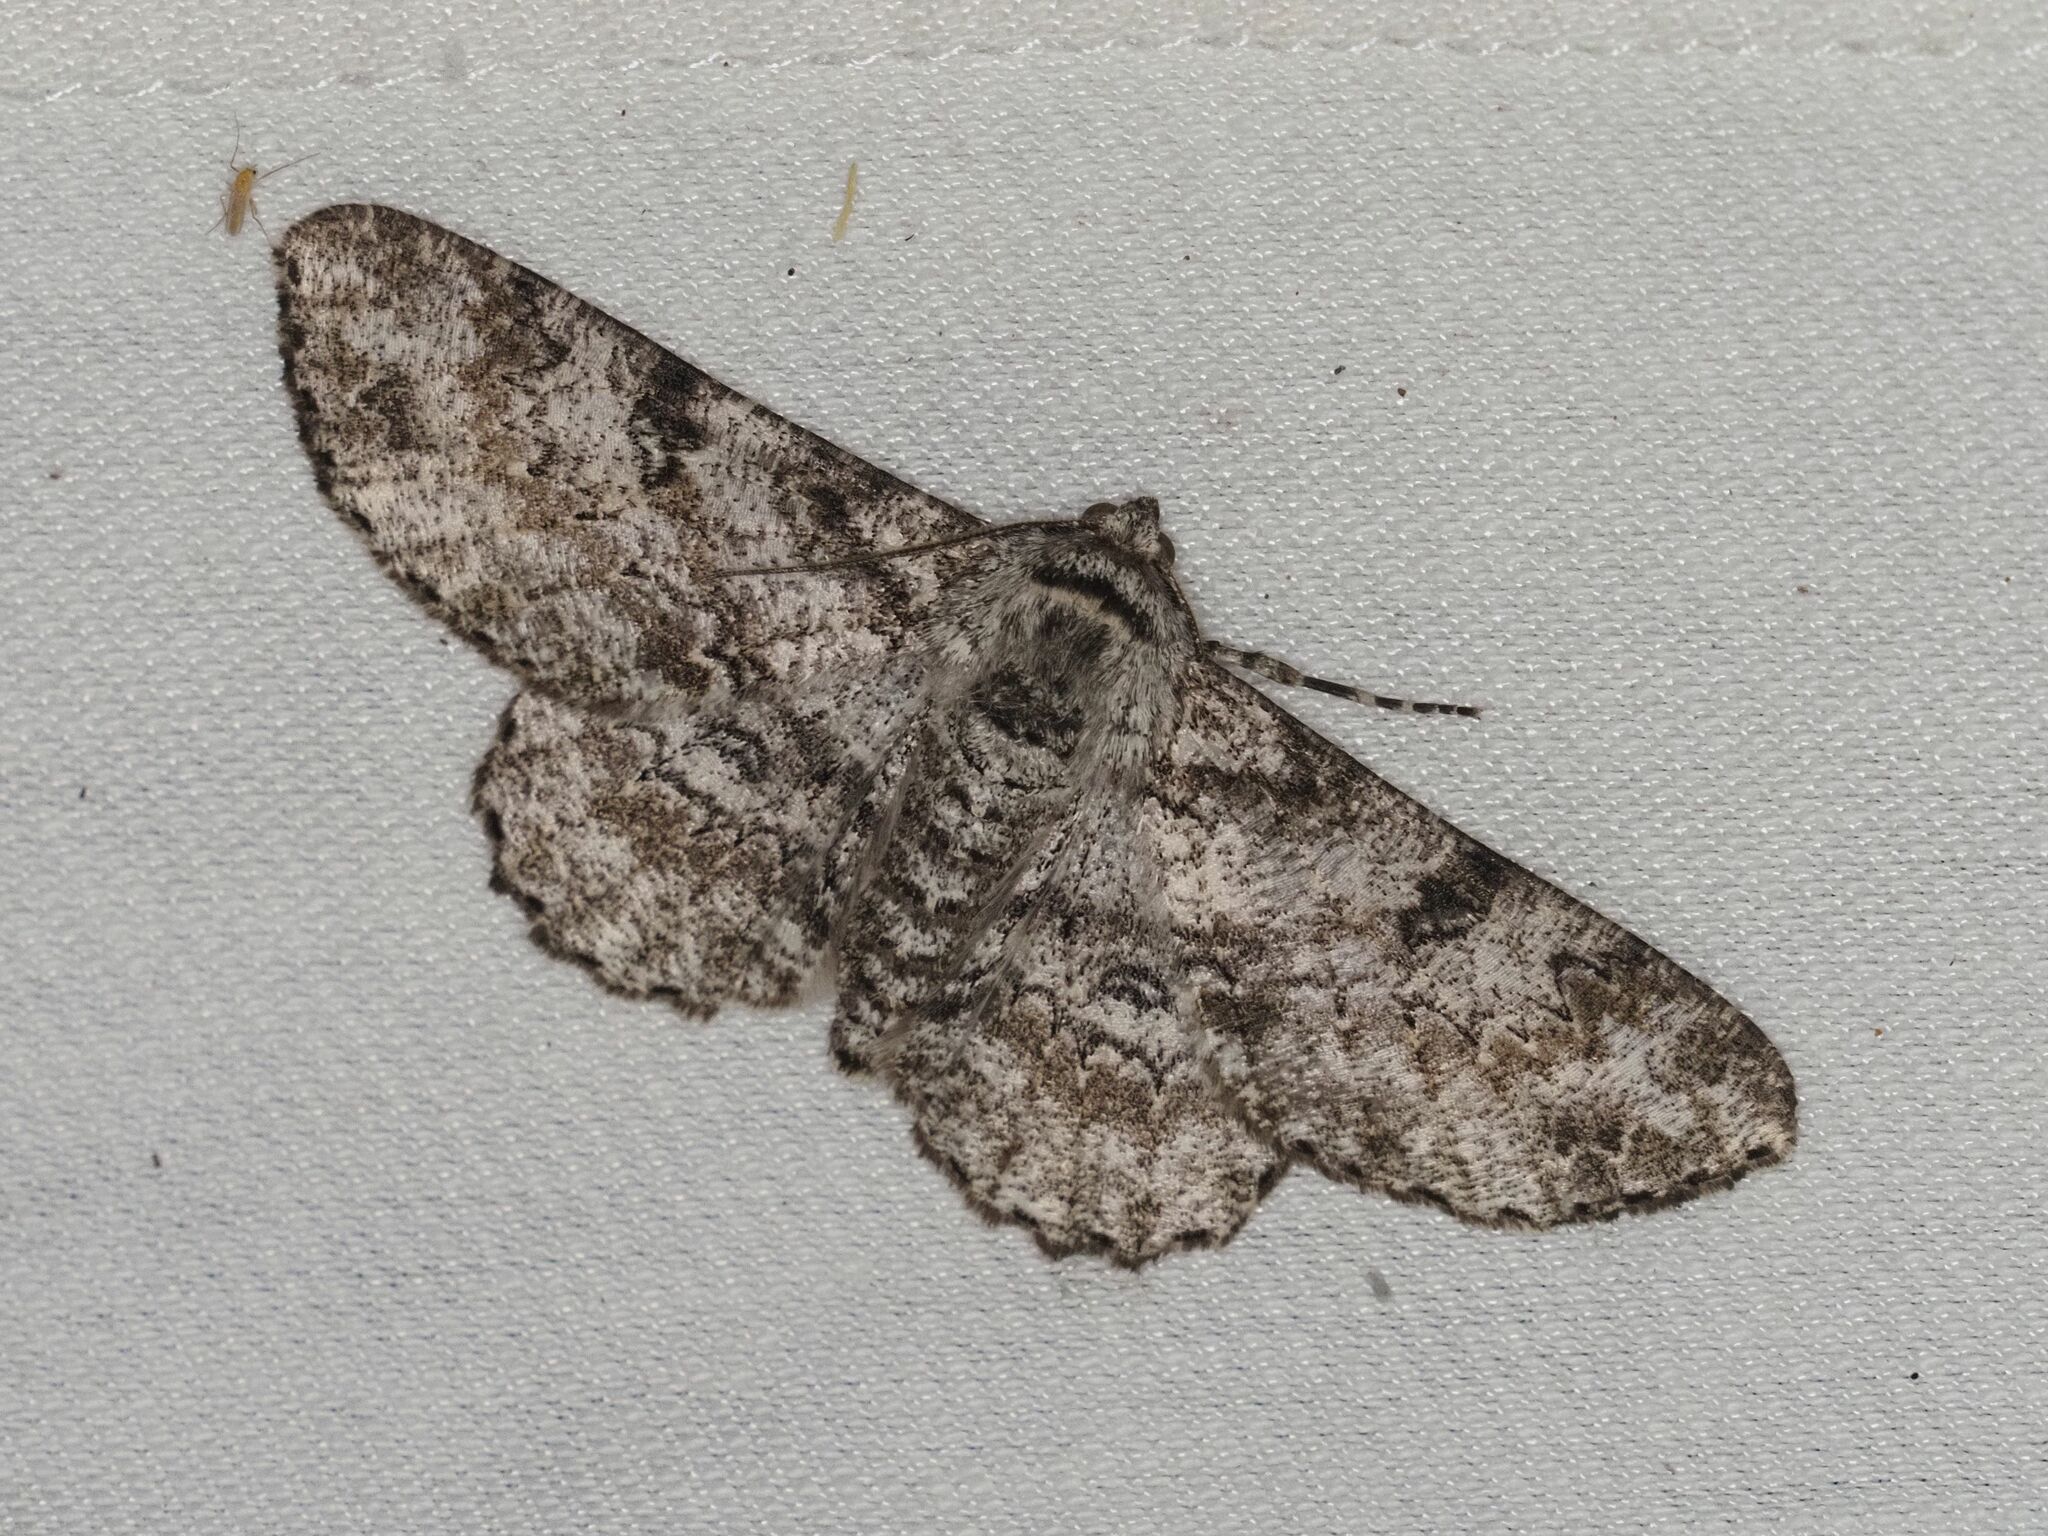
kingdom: Animalia
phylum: Arthropoda
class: Insecta
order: Lepidoptera
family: Geometridae
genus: Ascotis
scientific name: Ascotis selenaria
